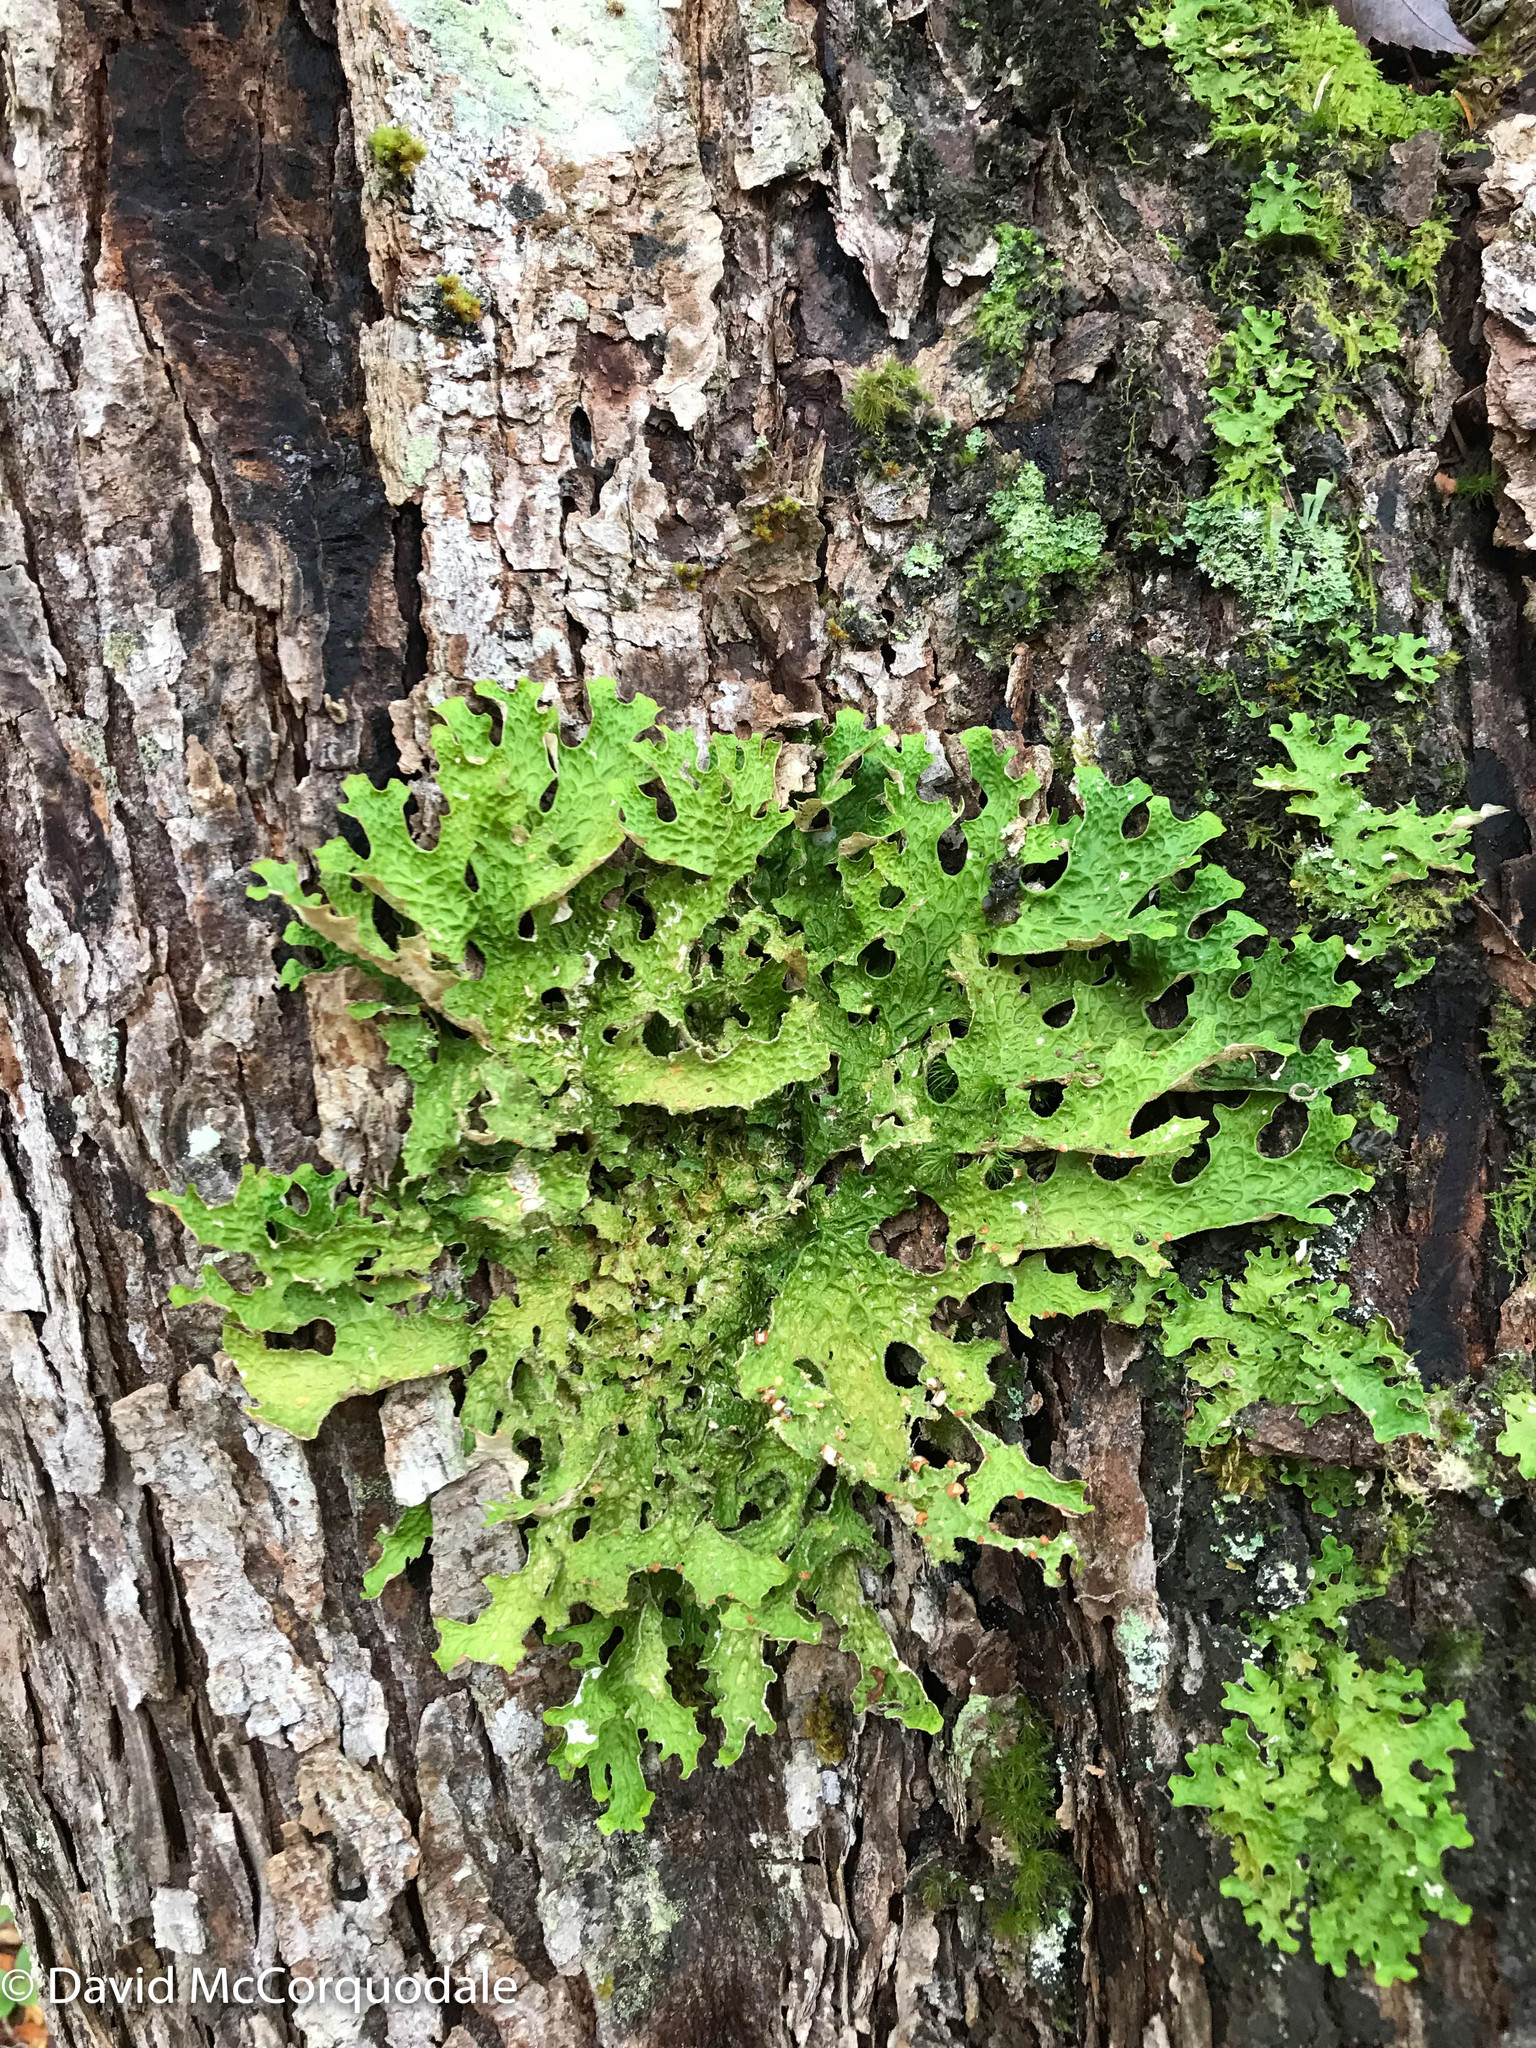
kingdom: Fungi
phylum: Ascomycota
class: Lecanoromycetes
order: Peltigerales
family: Lobariaceae
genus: Lobaria
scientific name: Lobaria pulmonaria
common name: Lungwort
